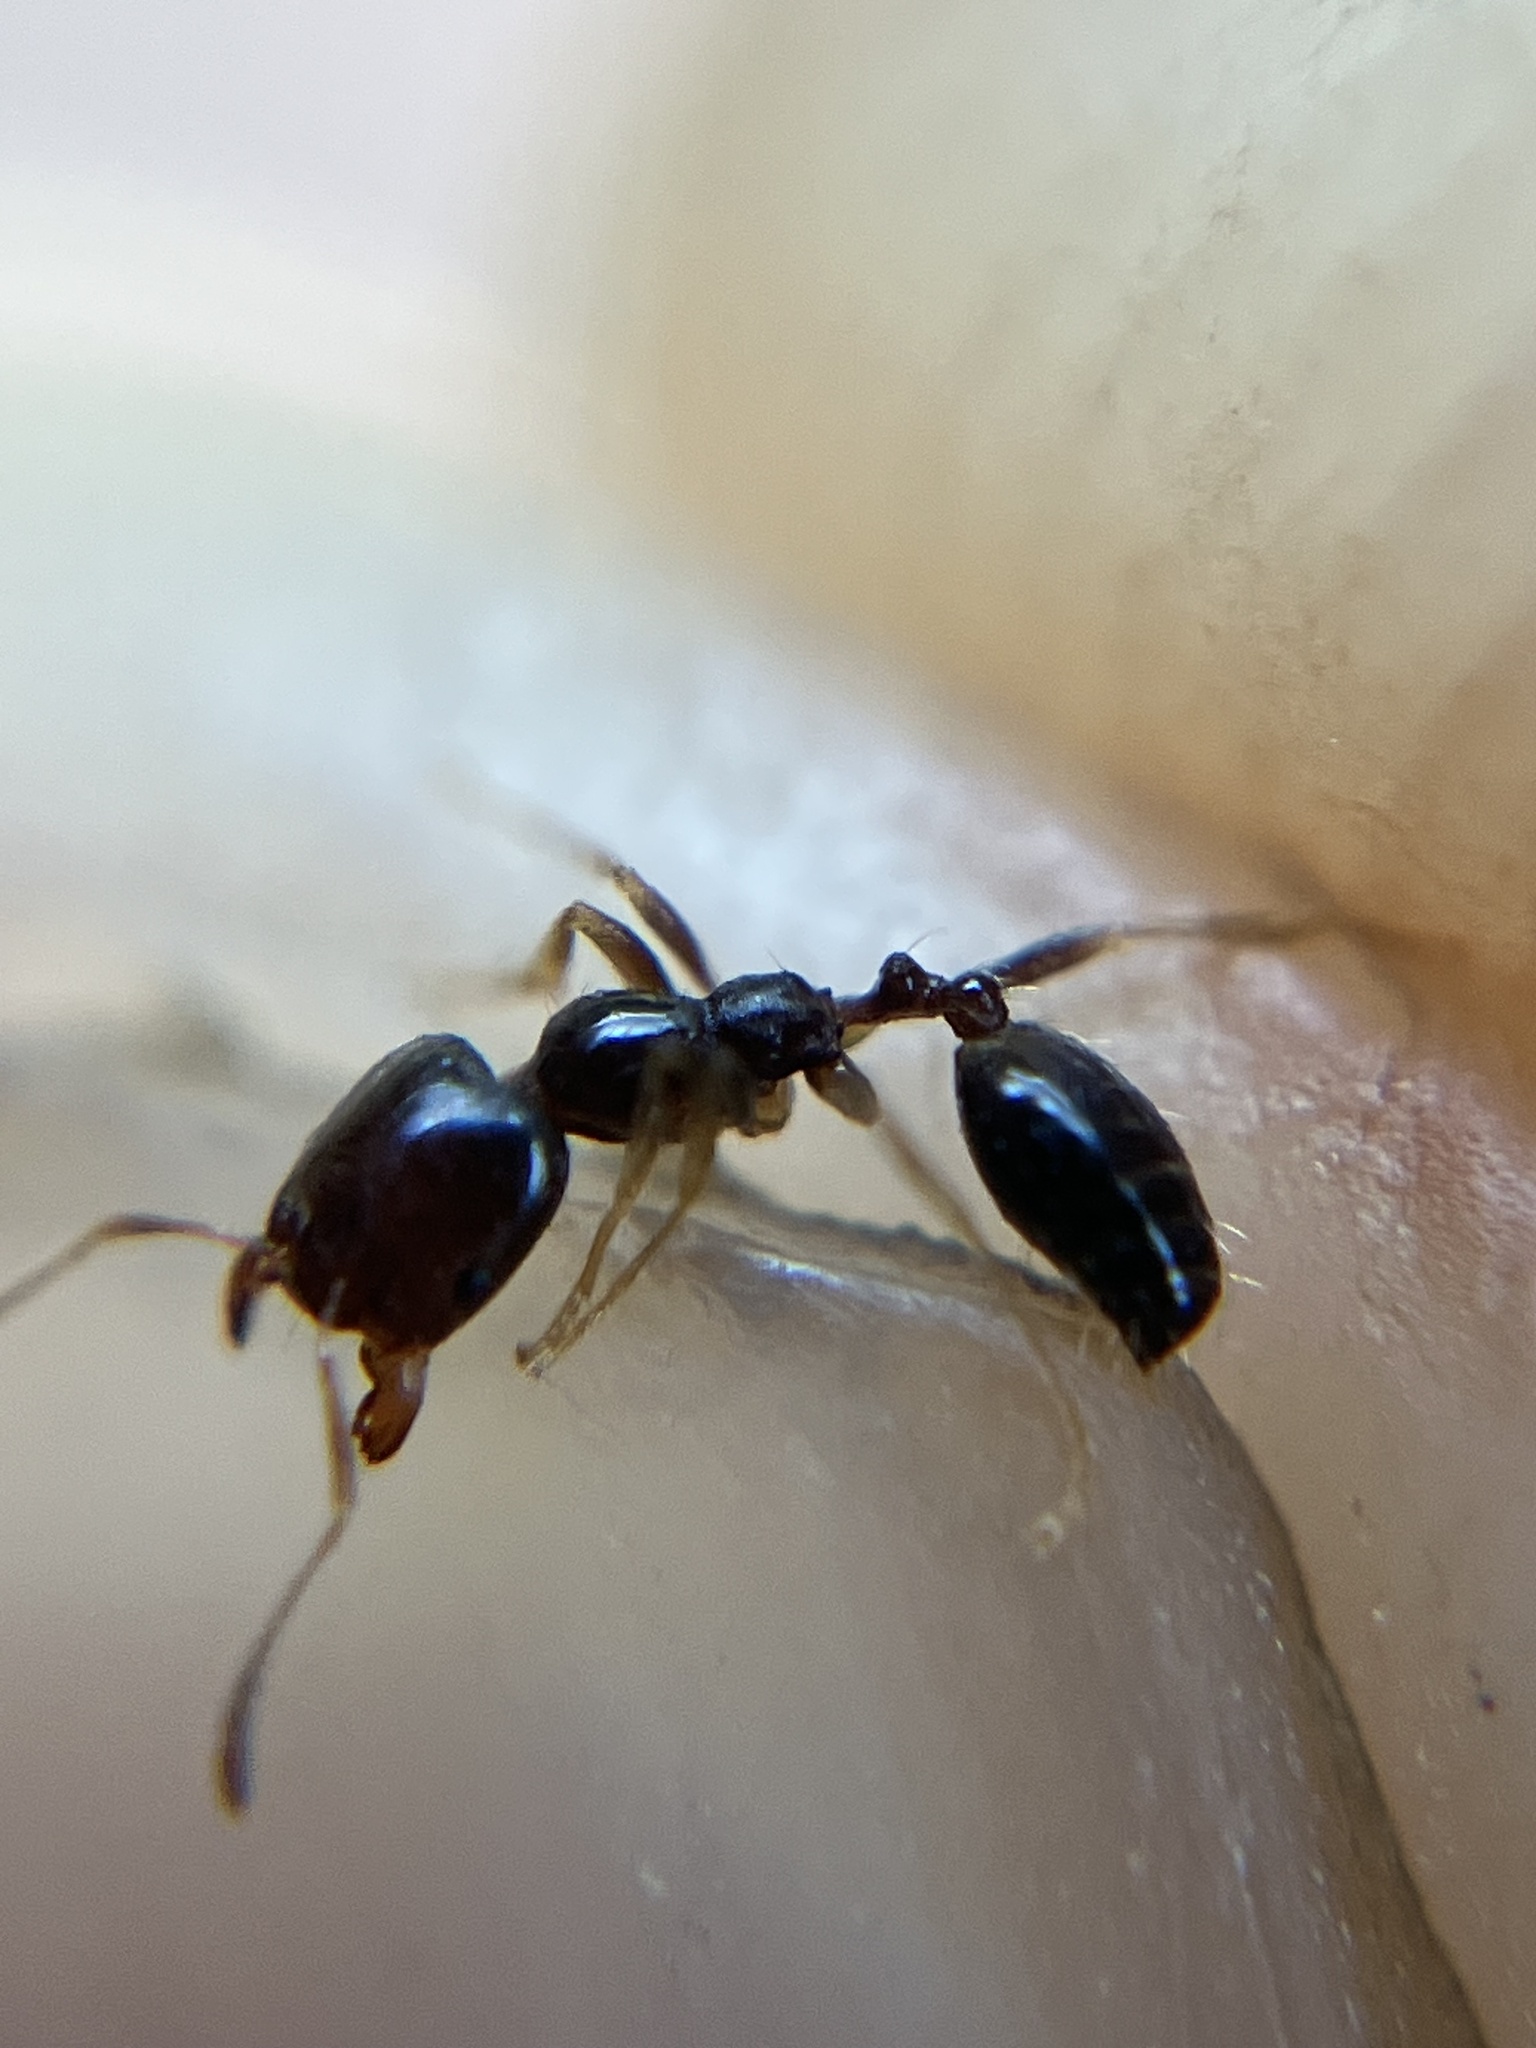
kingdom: Animalia
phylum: Arthropoda
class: Insecta
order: Hymenoptera
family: Formicidae
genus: Trichomyrmex
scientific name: Trichomyrmex mayri
